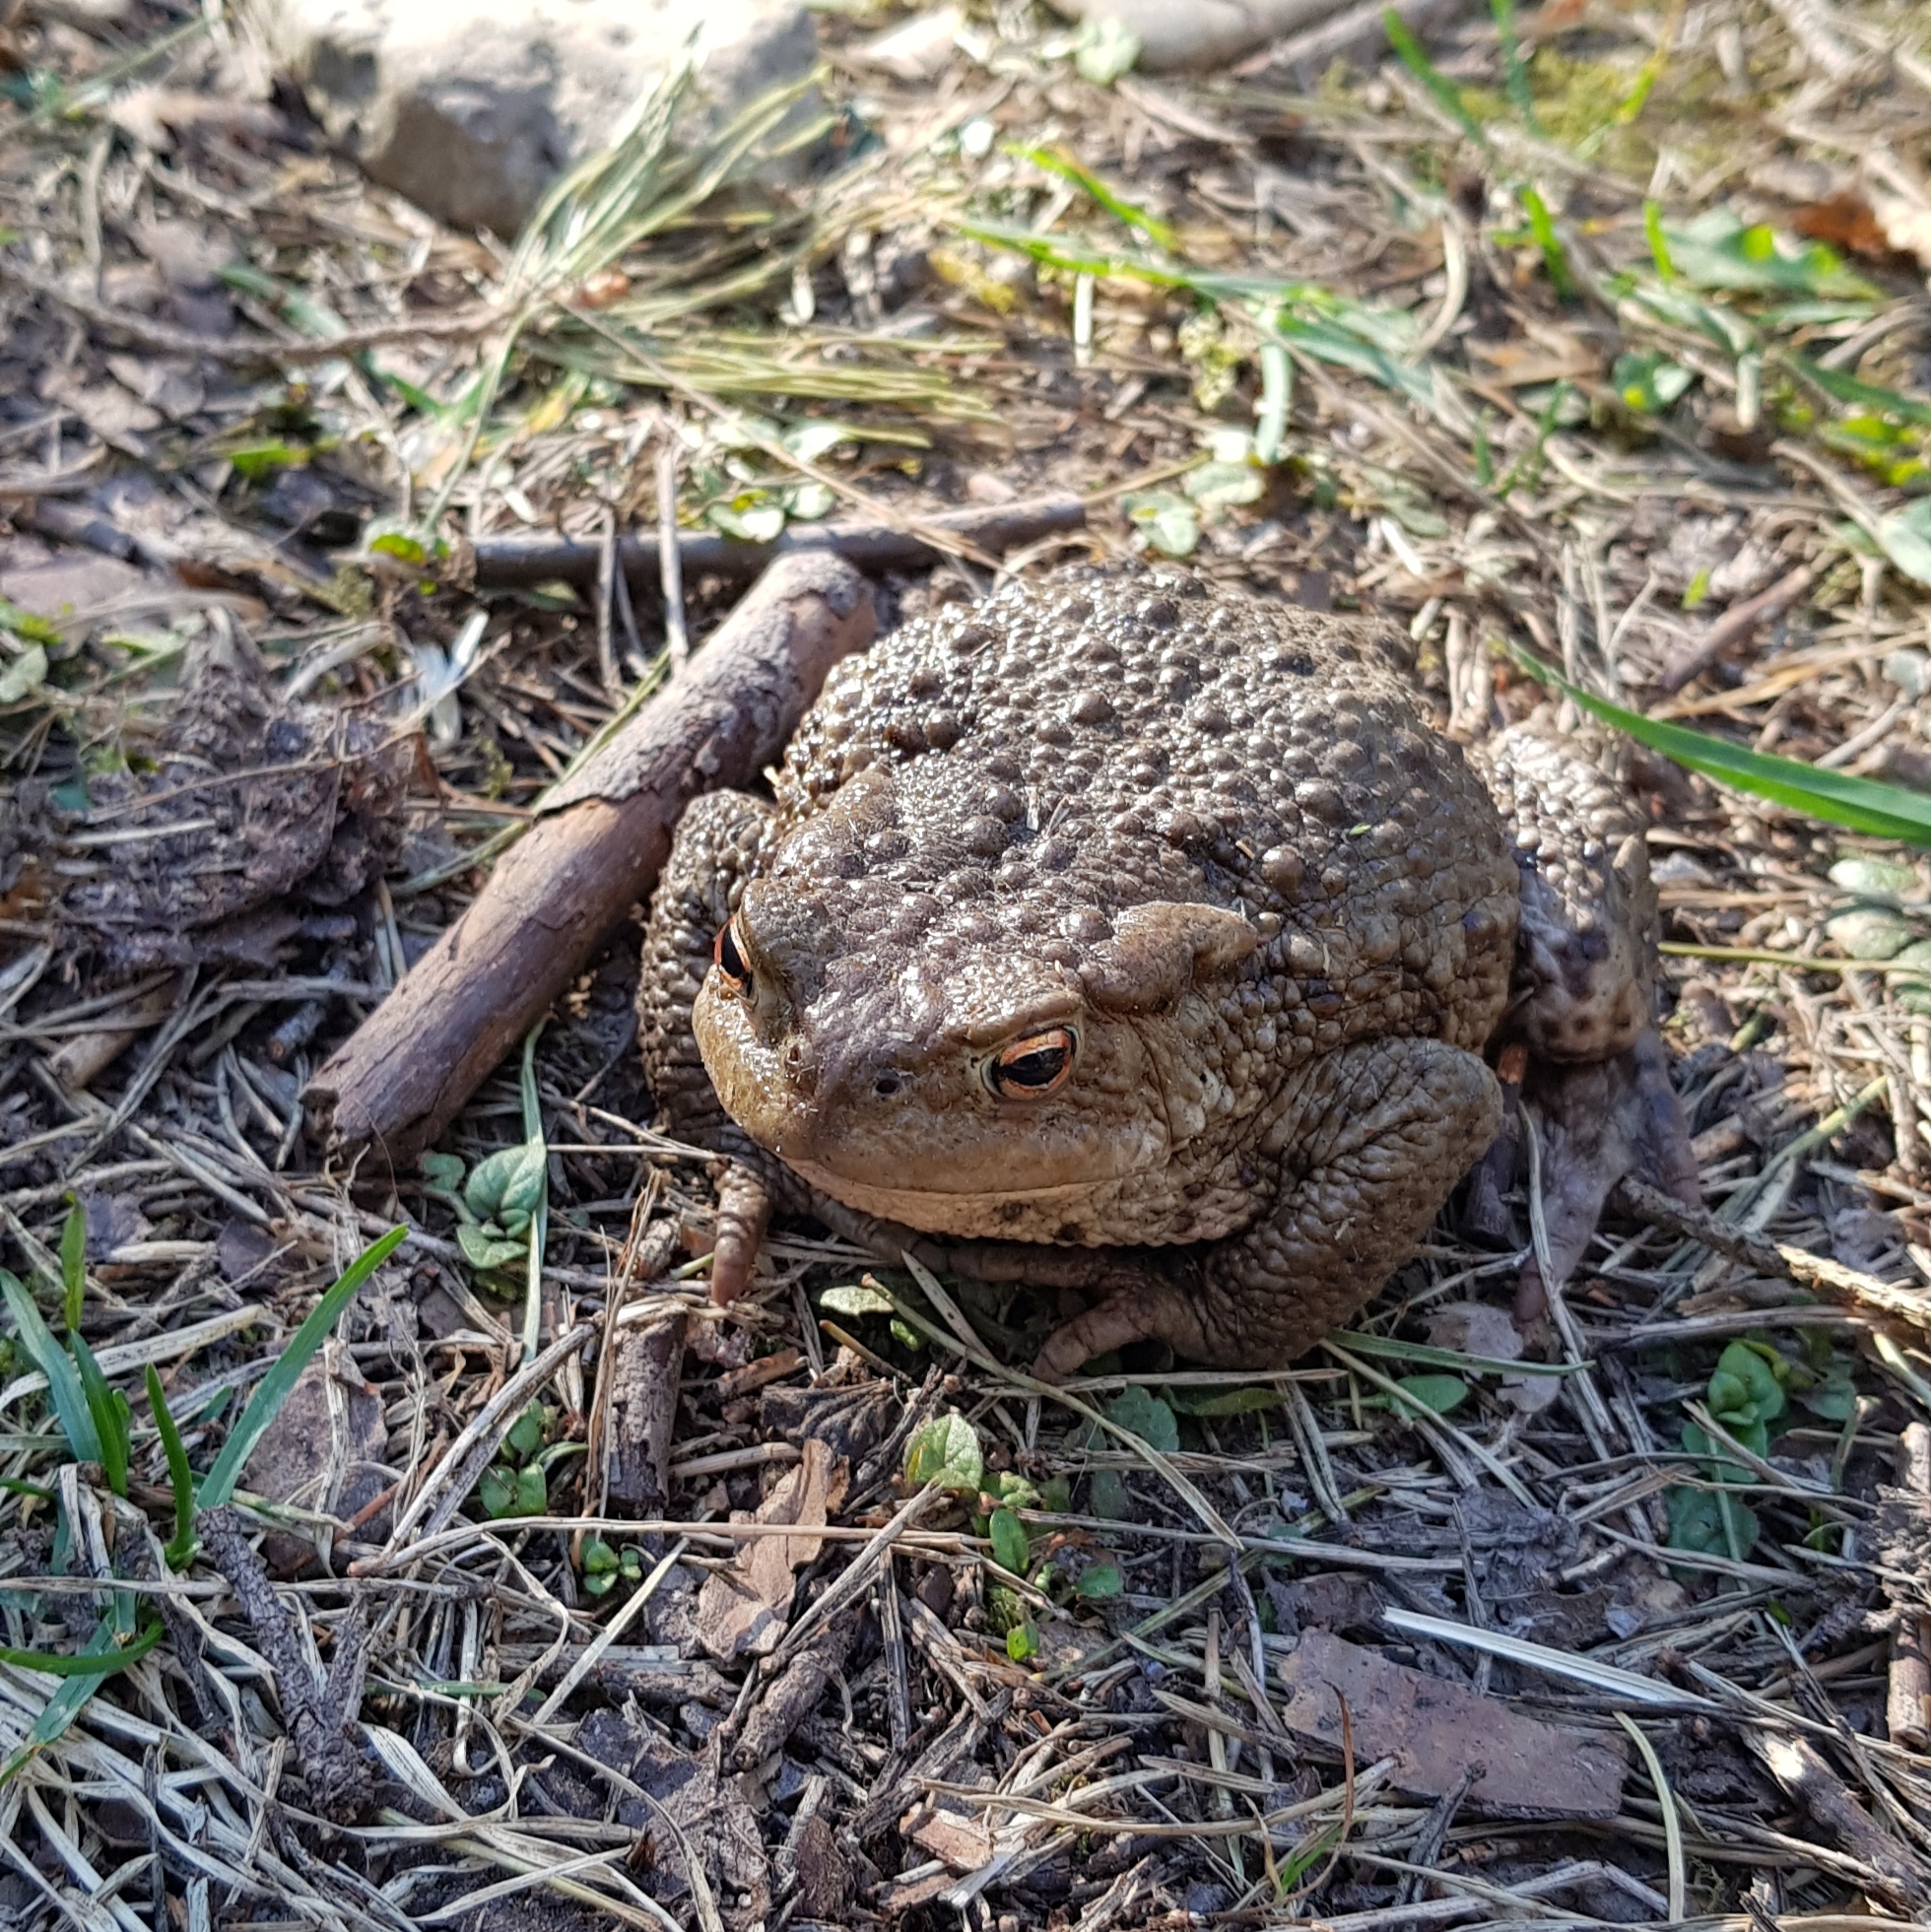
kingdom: Animalia
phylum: Chordata
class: Amphibia
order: Anura
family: Bufonidae
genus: Bufo
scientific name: Bufo bufo
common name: Common toad
